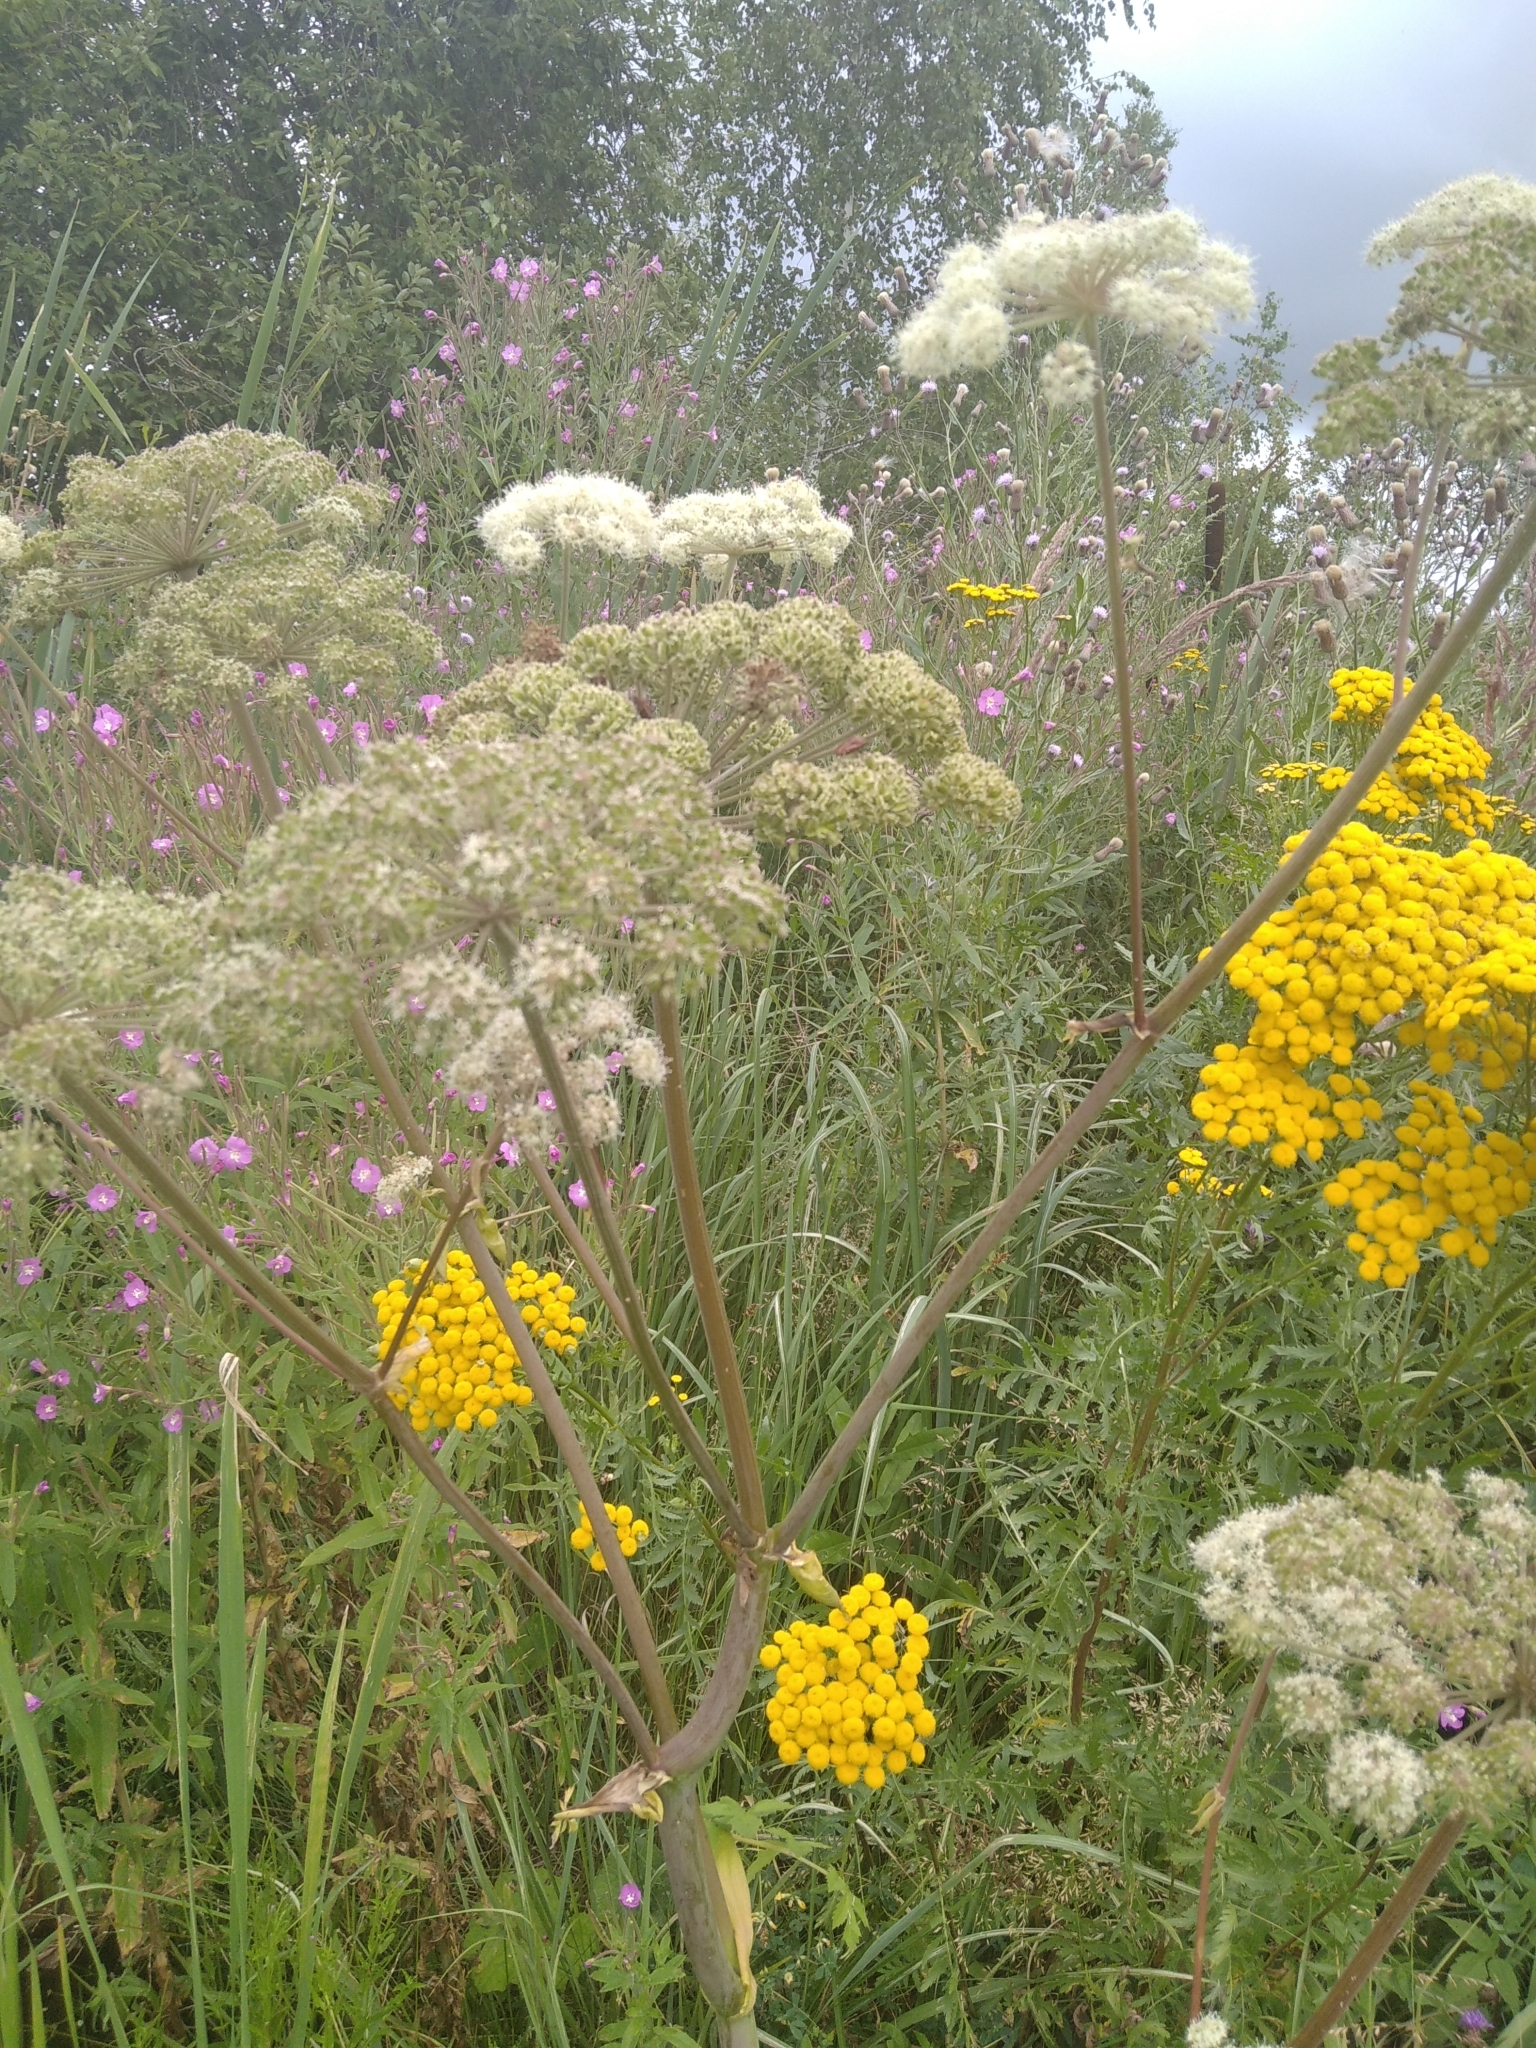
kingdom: Plantae
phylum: Tracheophyta
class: Magnoliopsida
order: Apiales
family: Apiaceae
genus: Angelica
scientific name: Angelica sylvestris
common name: Wild angelica
